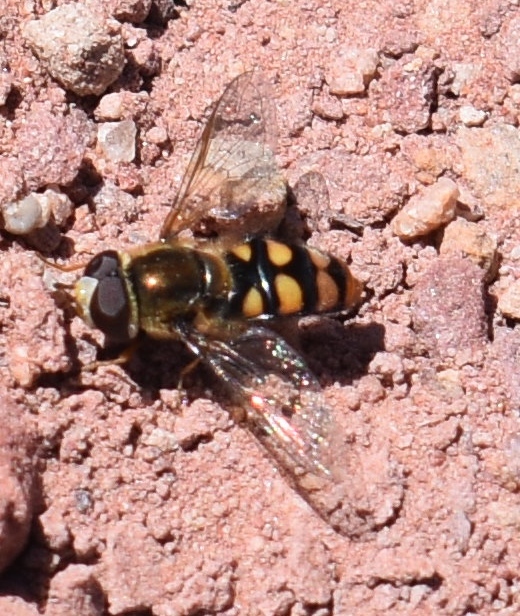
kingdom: Animalia
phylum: Arthropoda
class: Insecta
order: Diptera
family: Syrphidae
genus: Eupeodes
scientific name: Eupeodes flukei
